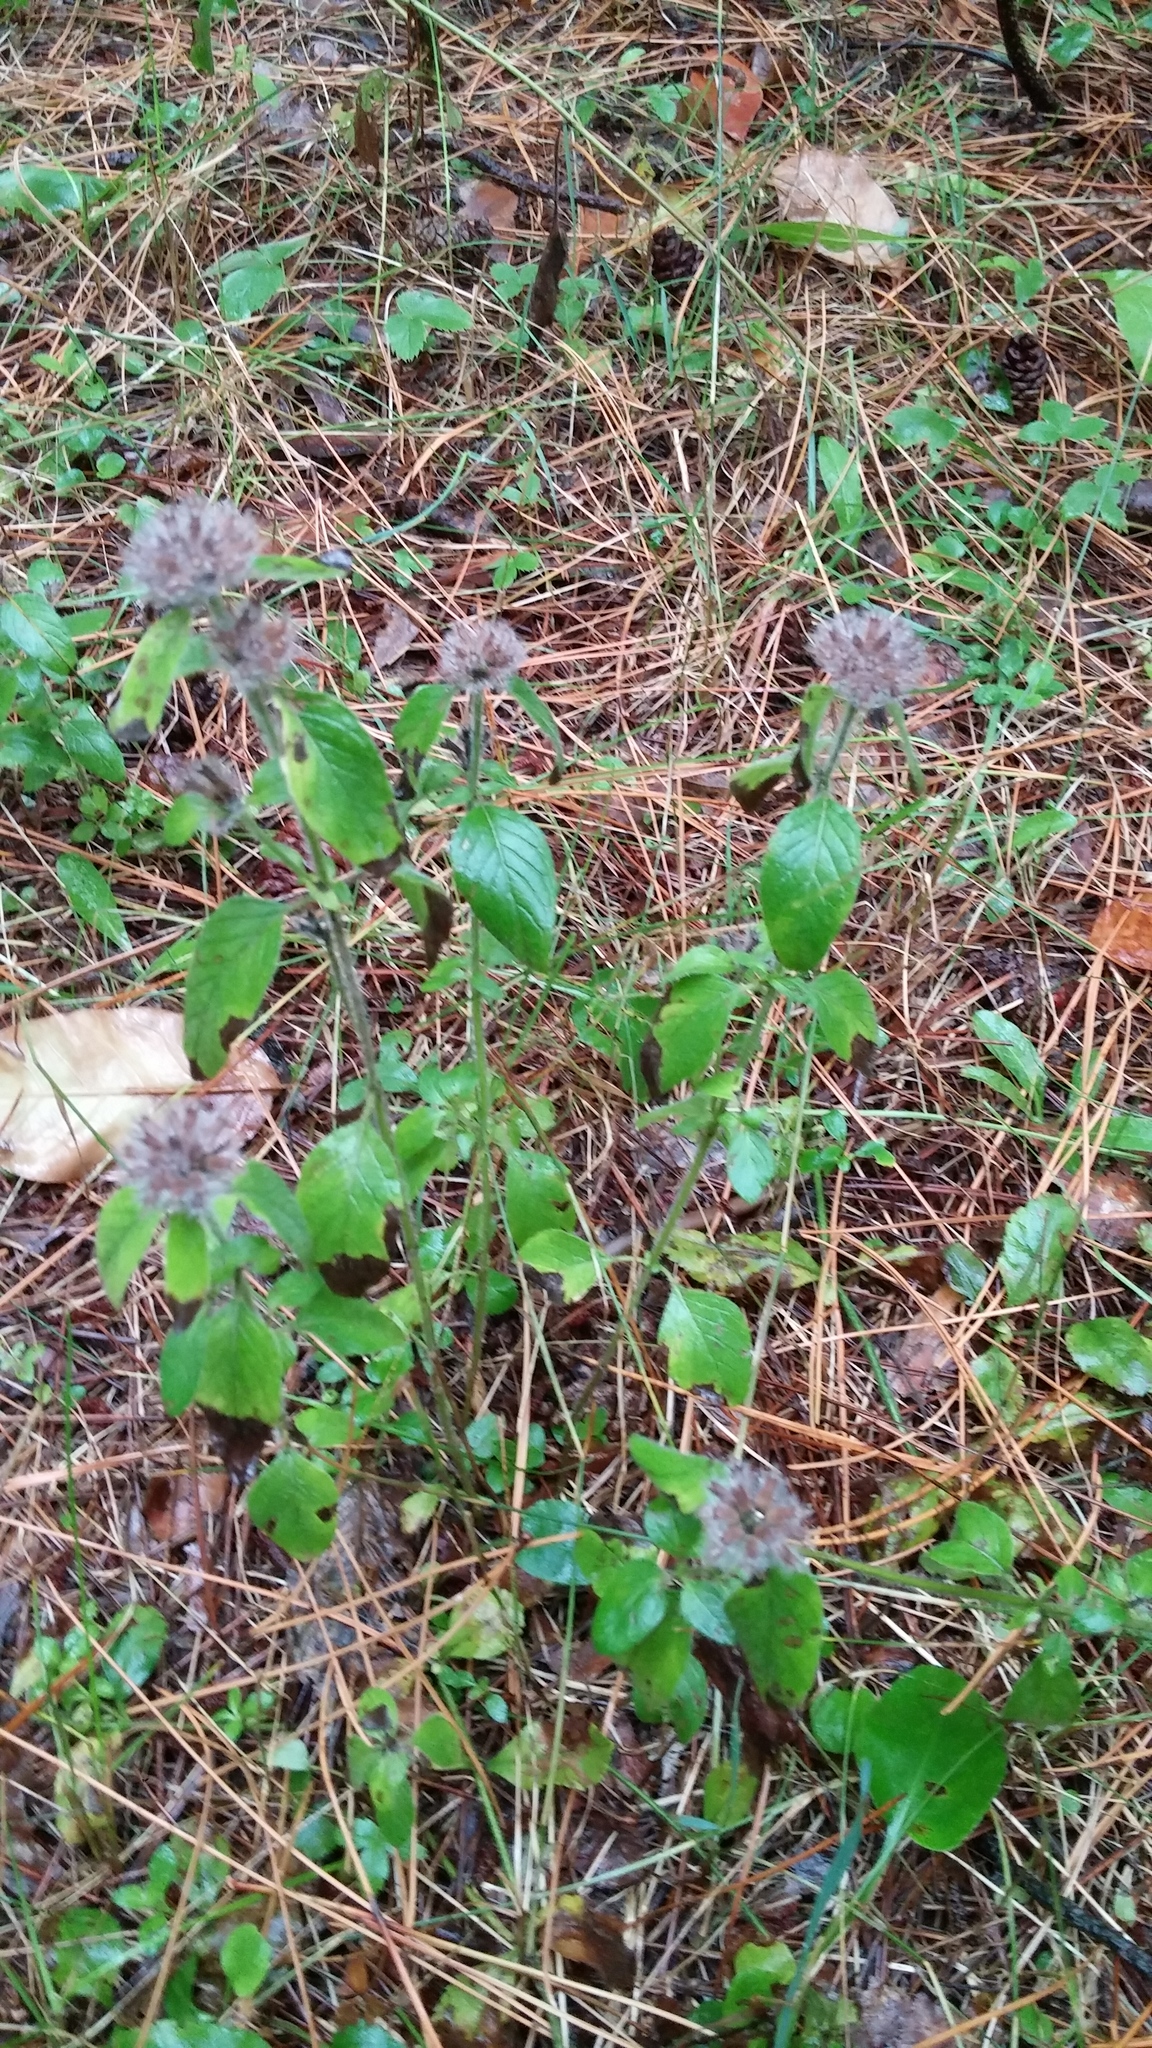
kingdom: Plantae
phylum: Tracheophyta
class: Magnoliopsida
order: Lamiales
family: Lamiaceae
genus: Clinopodium
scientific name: Clinopodium vulgare
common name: Wild basil
